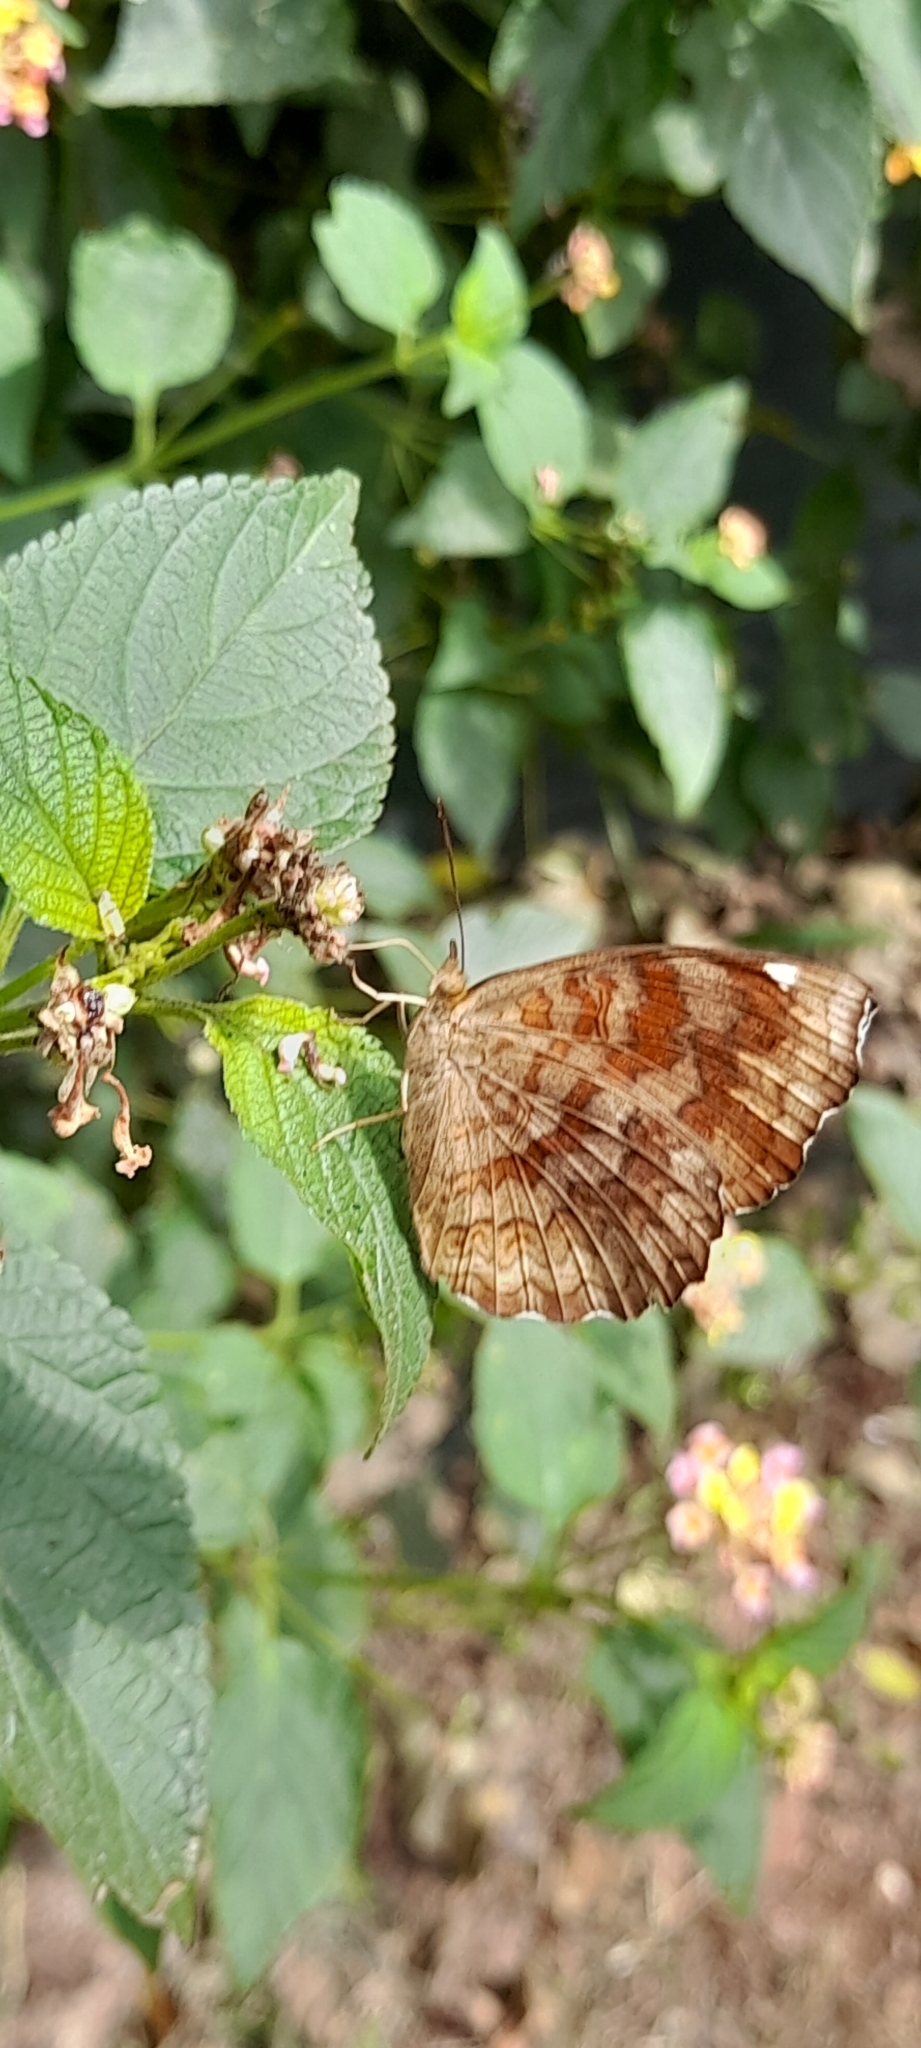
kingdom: Animalia
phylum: Arthropoda
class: Insecta
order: Lepidoptera
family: Nymphalidae
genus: Ariadne
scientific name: Ariadne merione
